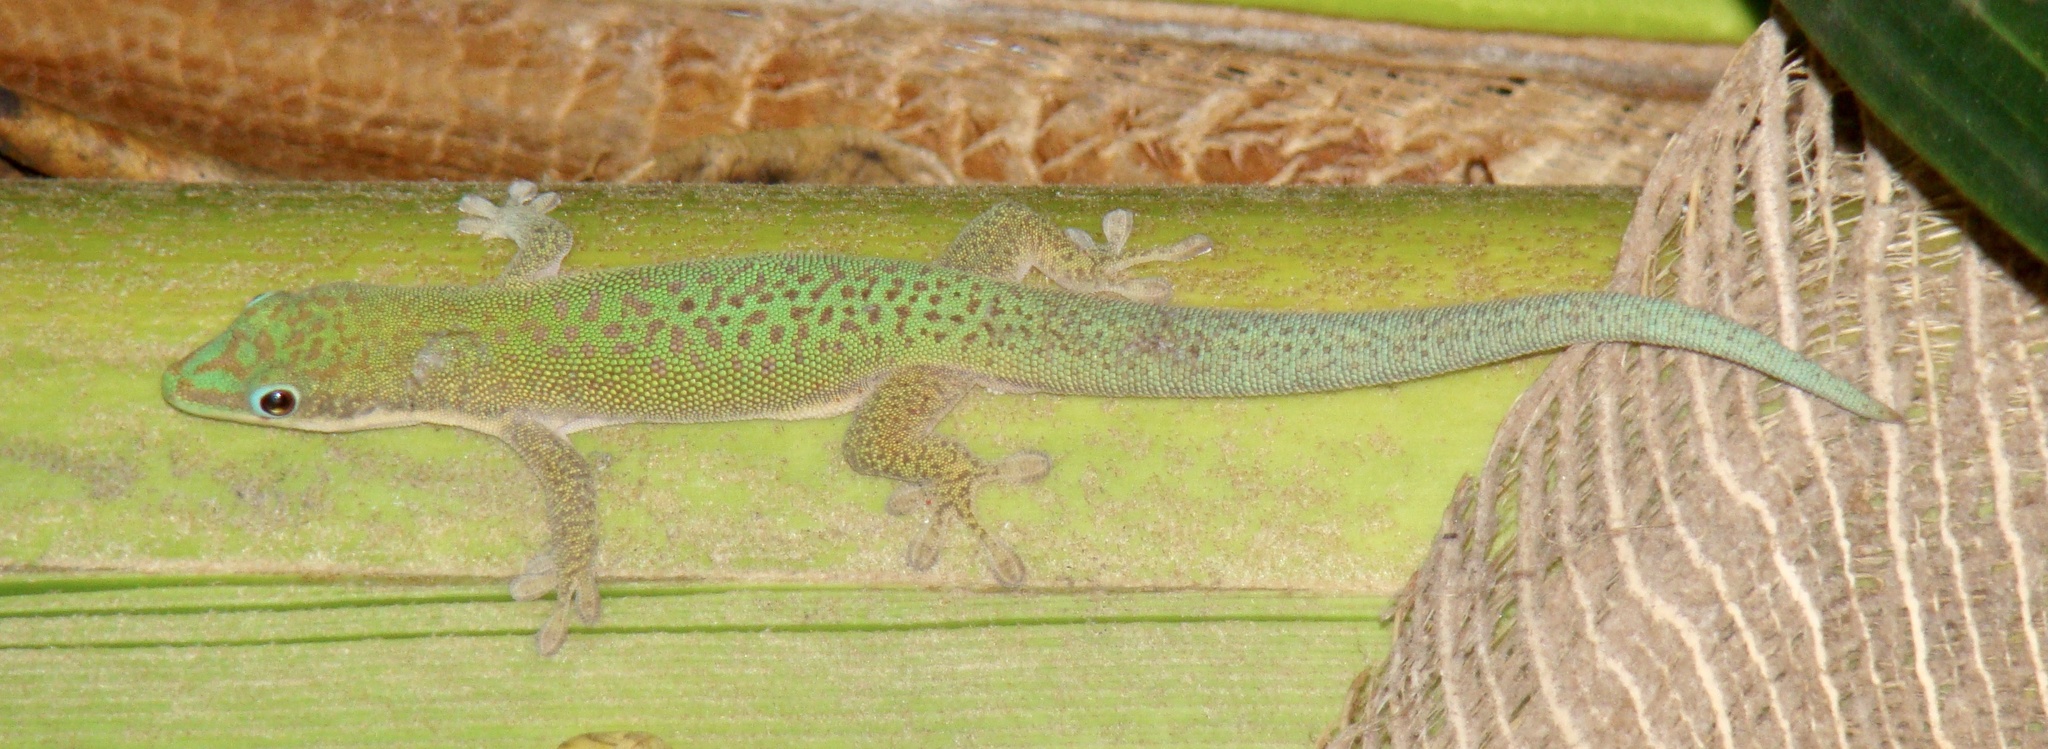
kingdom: Animalia
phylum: Chordata
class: Squamata
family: Gekkonidae
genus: Phelsuma
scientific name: Phelsuma dubia
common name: Zanzibar day gecko
